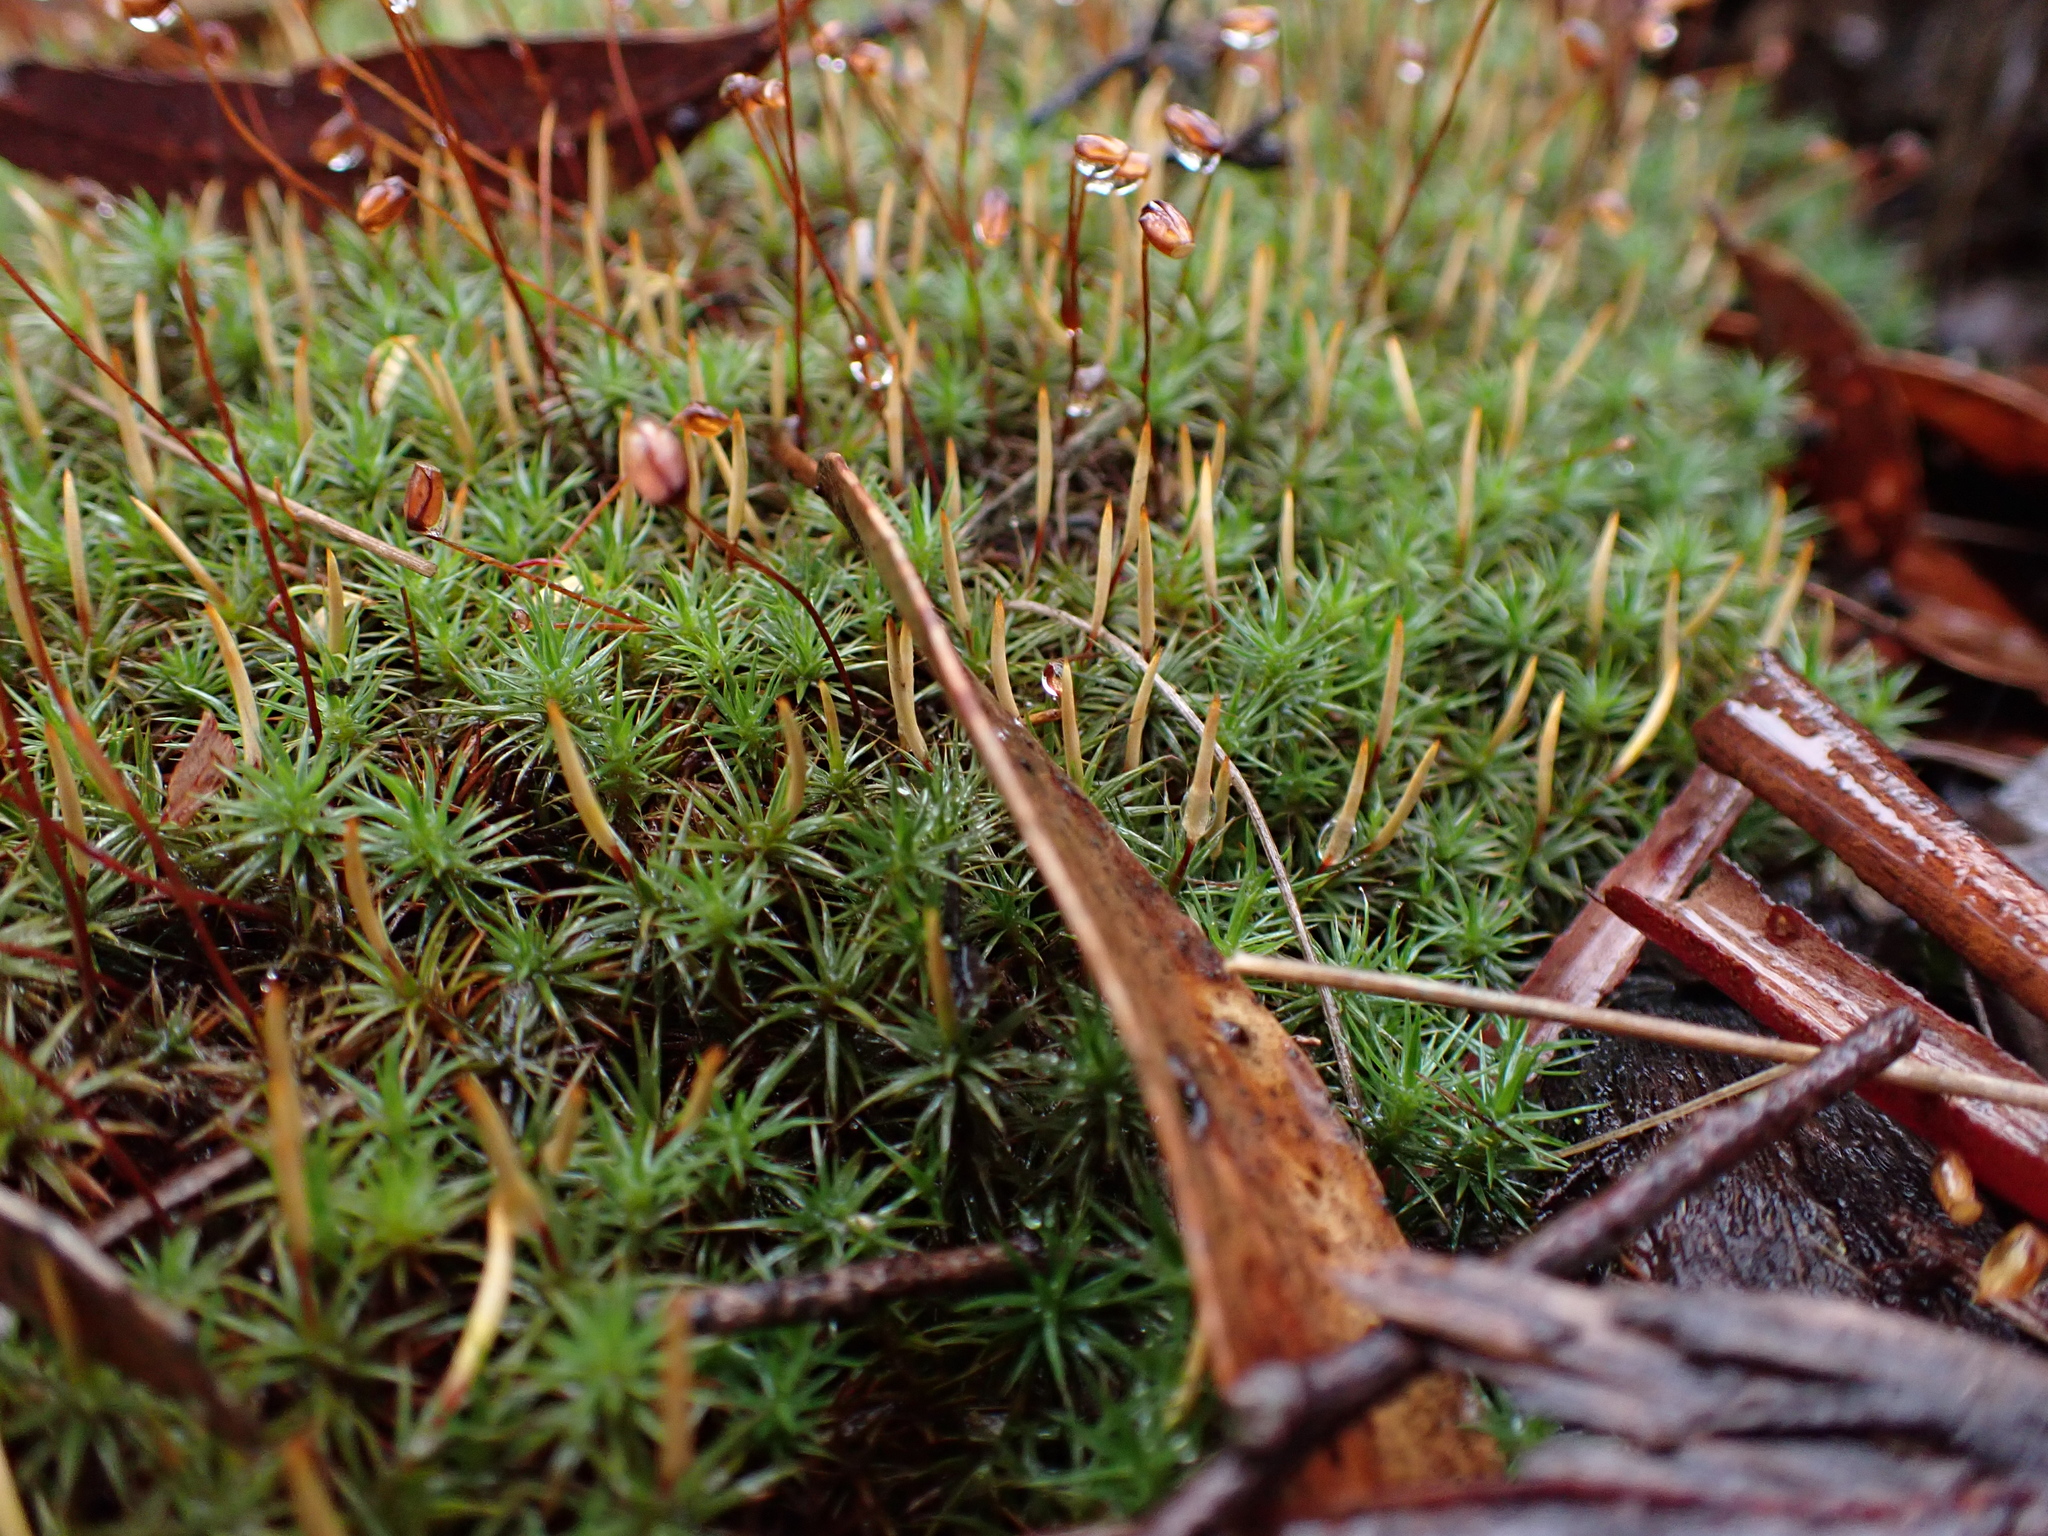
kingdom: Plantae
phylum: Bryophyta
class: Polytrichopsida
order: Polytrichales
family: Polytrichaceae
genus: Polytrichum
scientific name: Polytrichum juniperinum
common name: Juniper haircap moss
